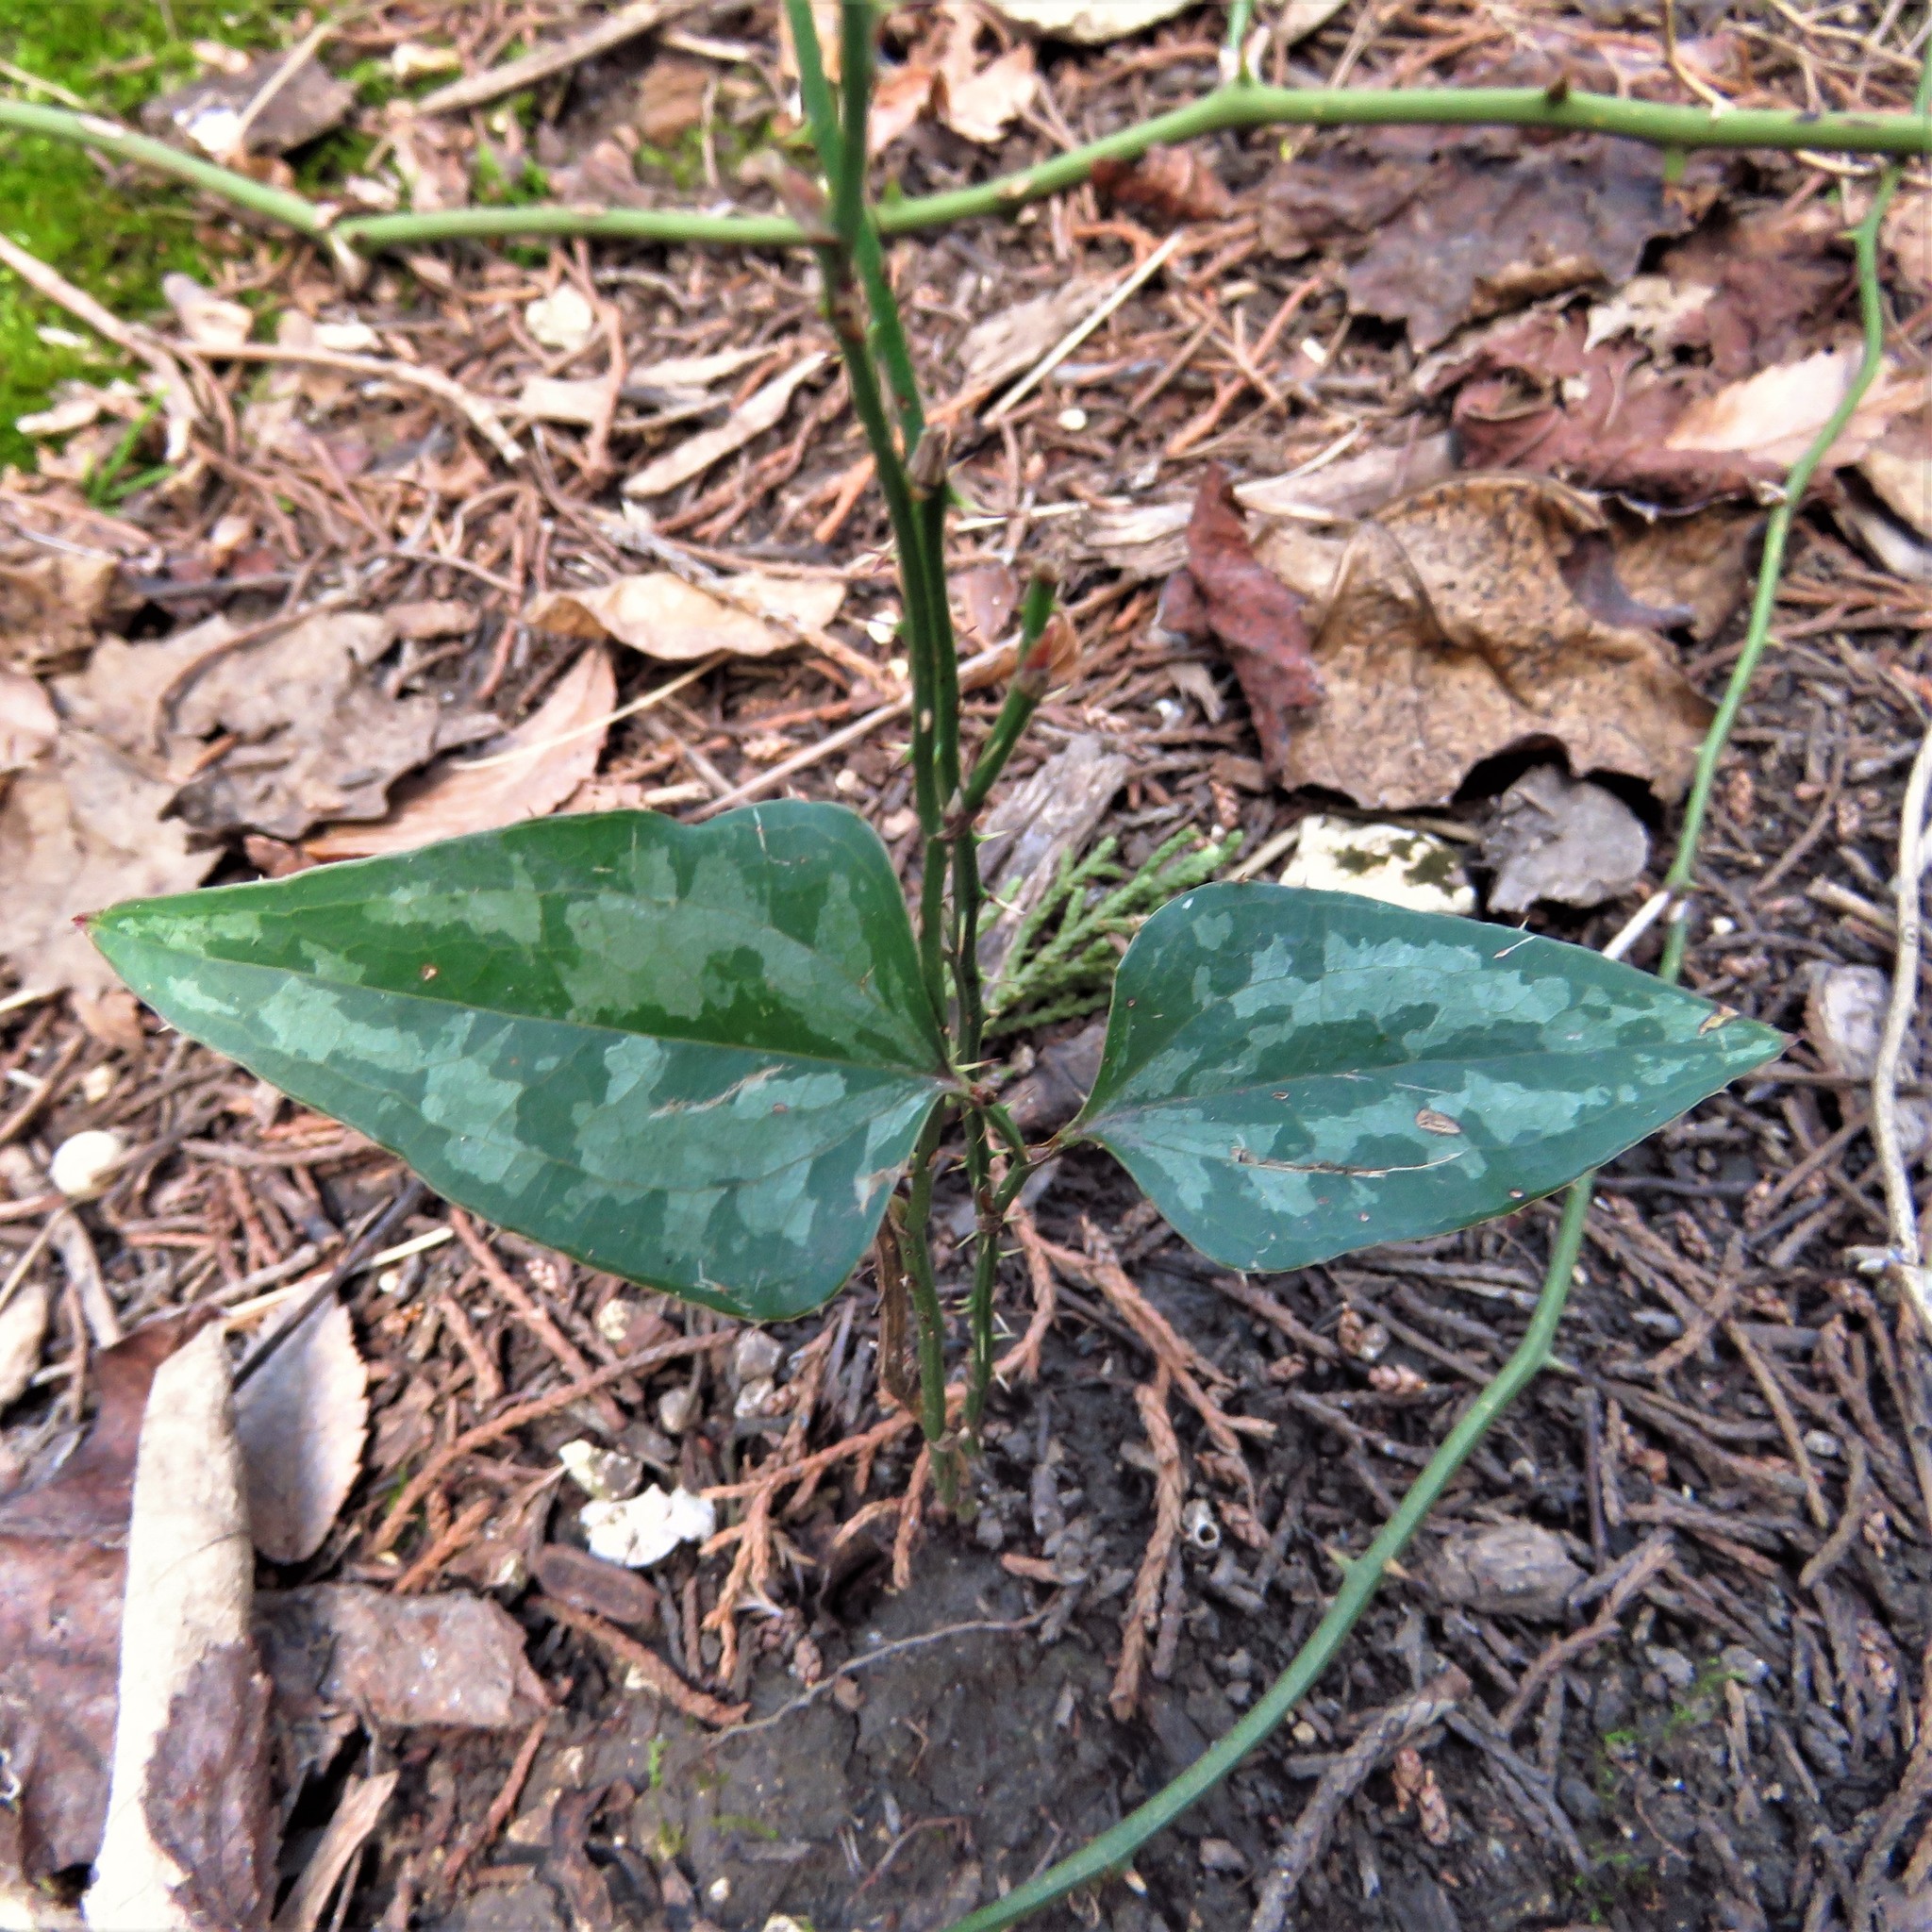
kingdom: Plantae
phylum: Tracheophyta
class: Liliopsida
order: Liliales
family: Smilacaceae
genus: Smilax
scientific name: Smilax bona-nox
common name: Catbrier
